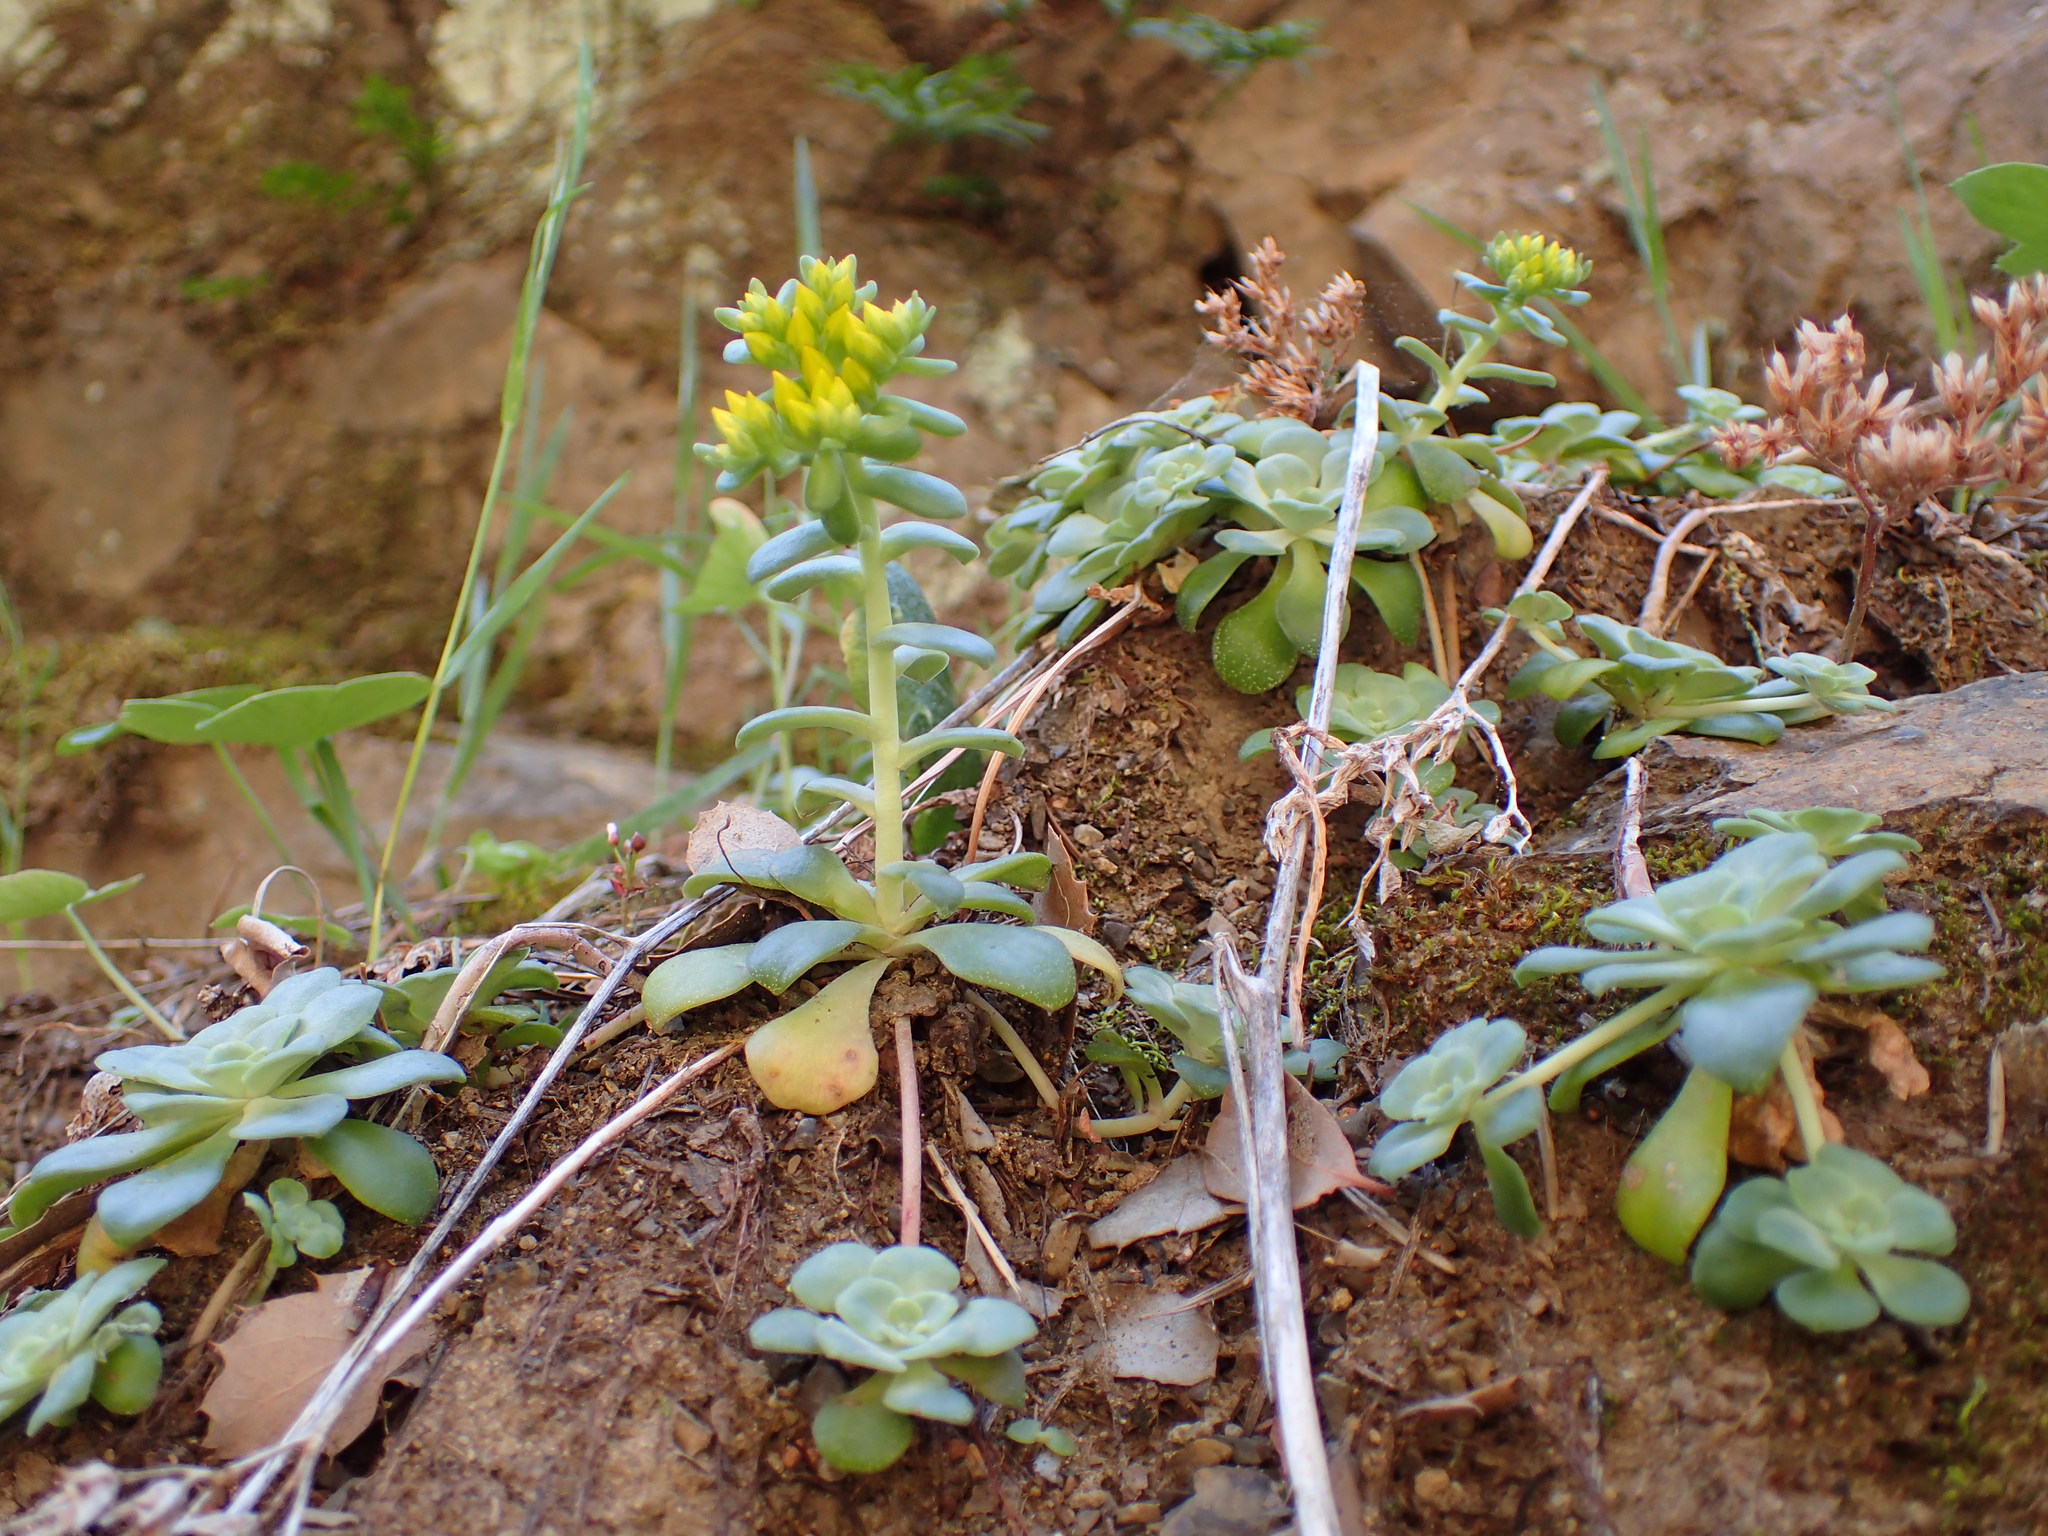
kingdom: Plantae
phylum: Tracheophyta
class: Magnoliopsida
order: Saxifragales
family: Crassulaceae
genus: Sedum
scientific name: Sedum spathulifolium
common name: Colorado stonecrop
